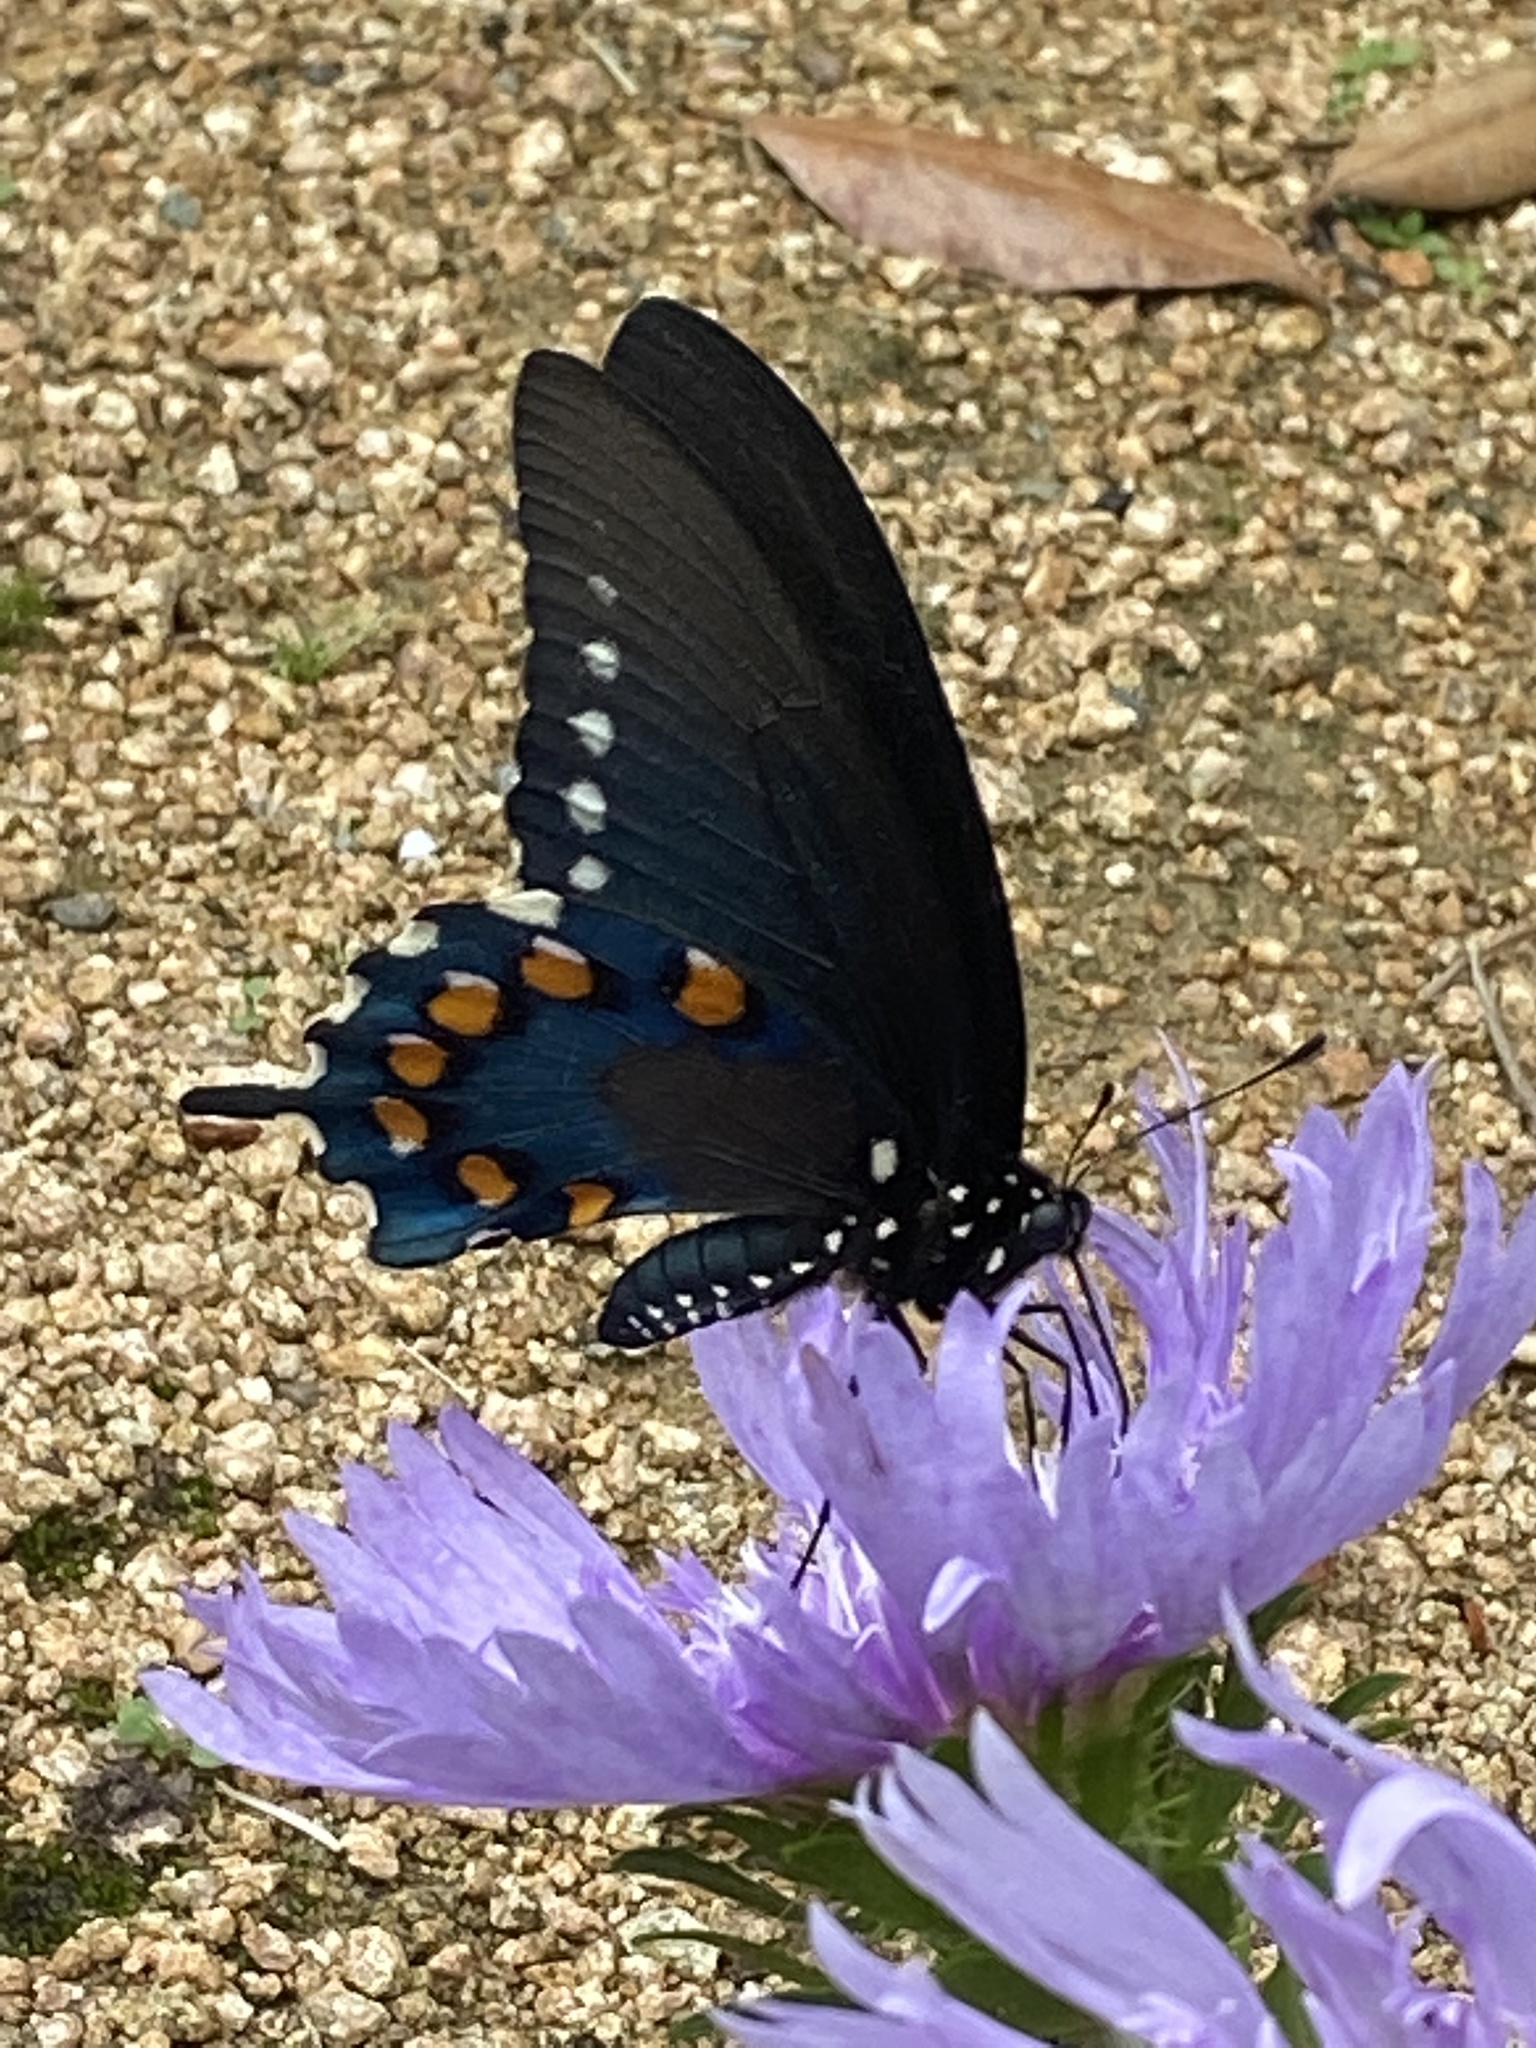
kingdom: Animalia
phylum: Arthropoda
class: Insecta
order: Lepidoptera
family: Papilionidae
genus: Battus
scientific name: Battus philenor
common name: Pipevine swallowtail
